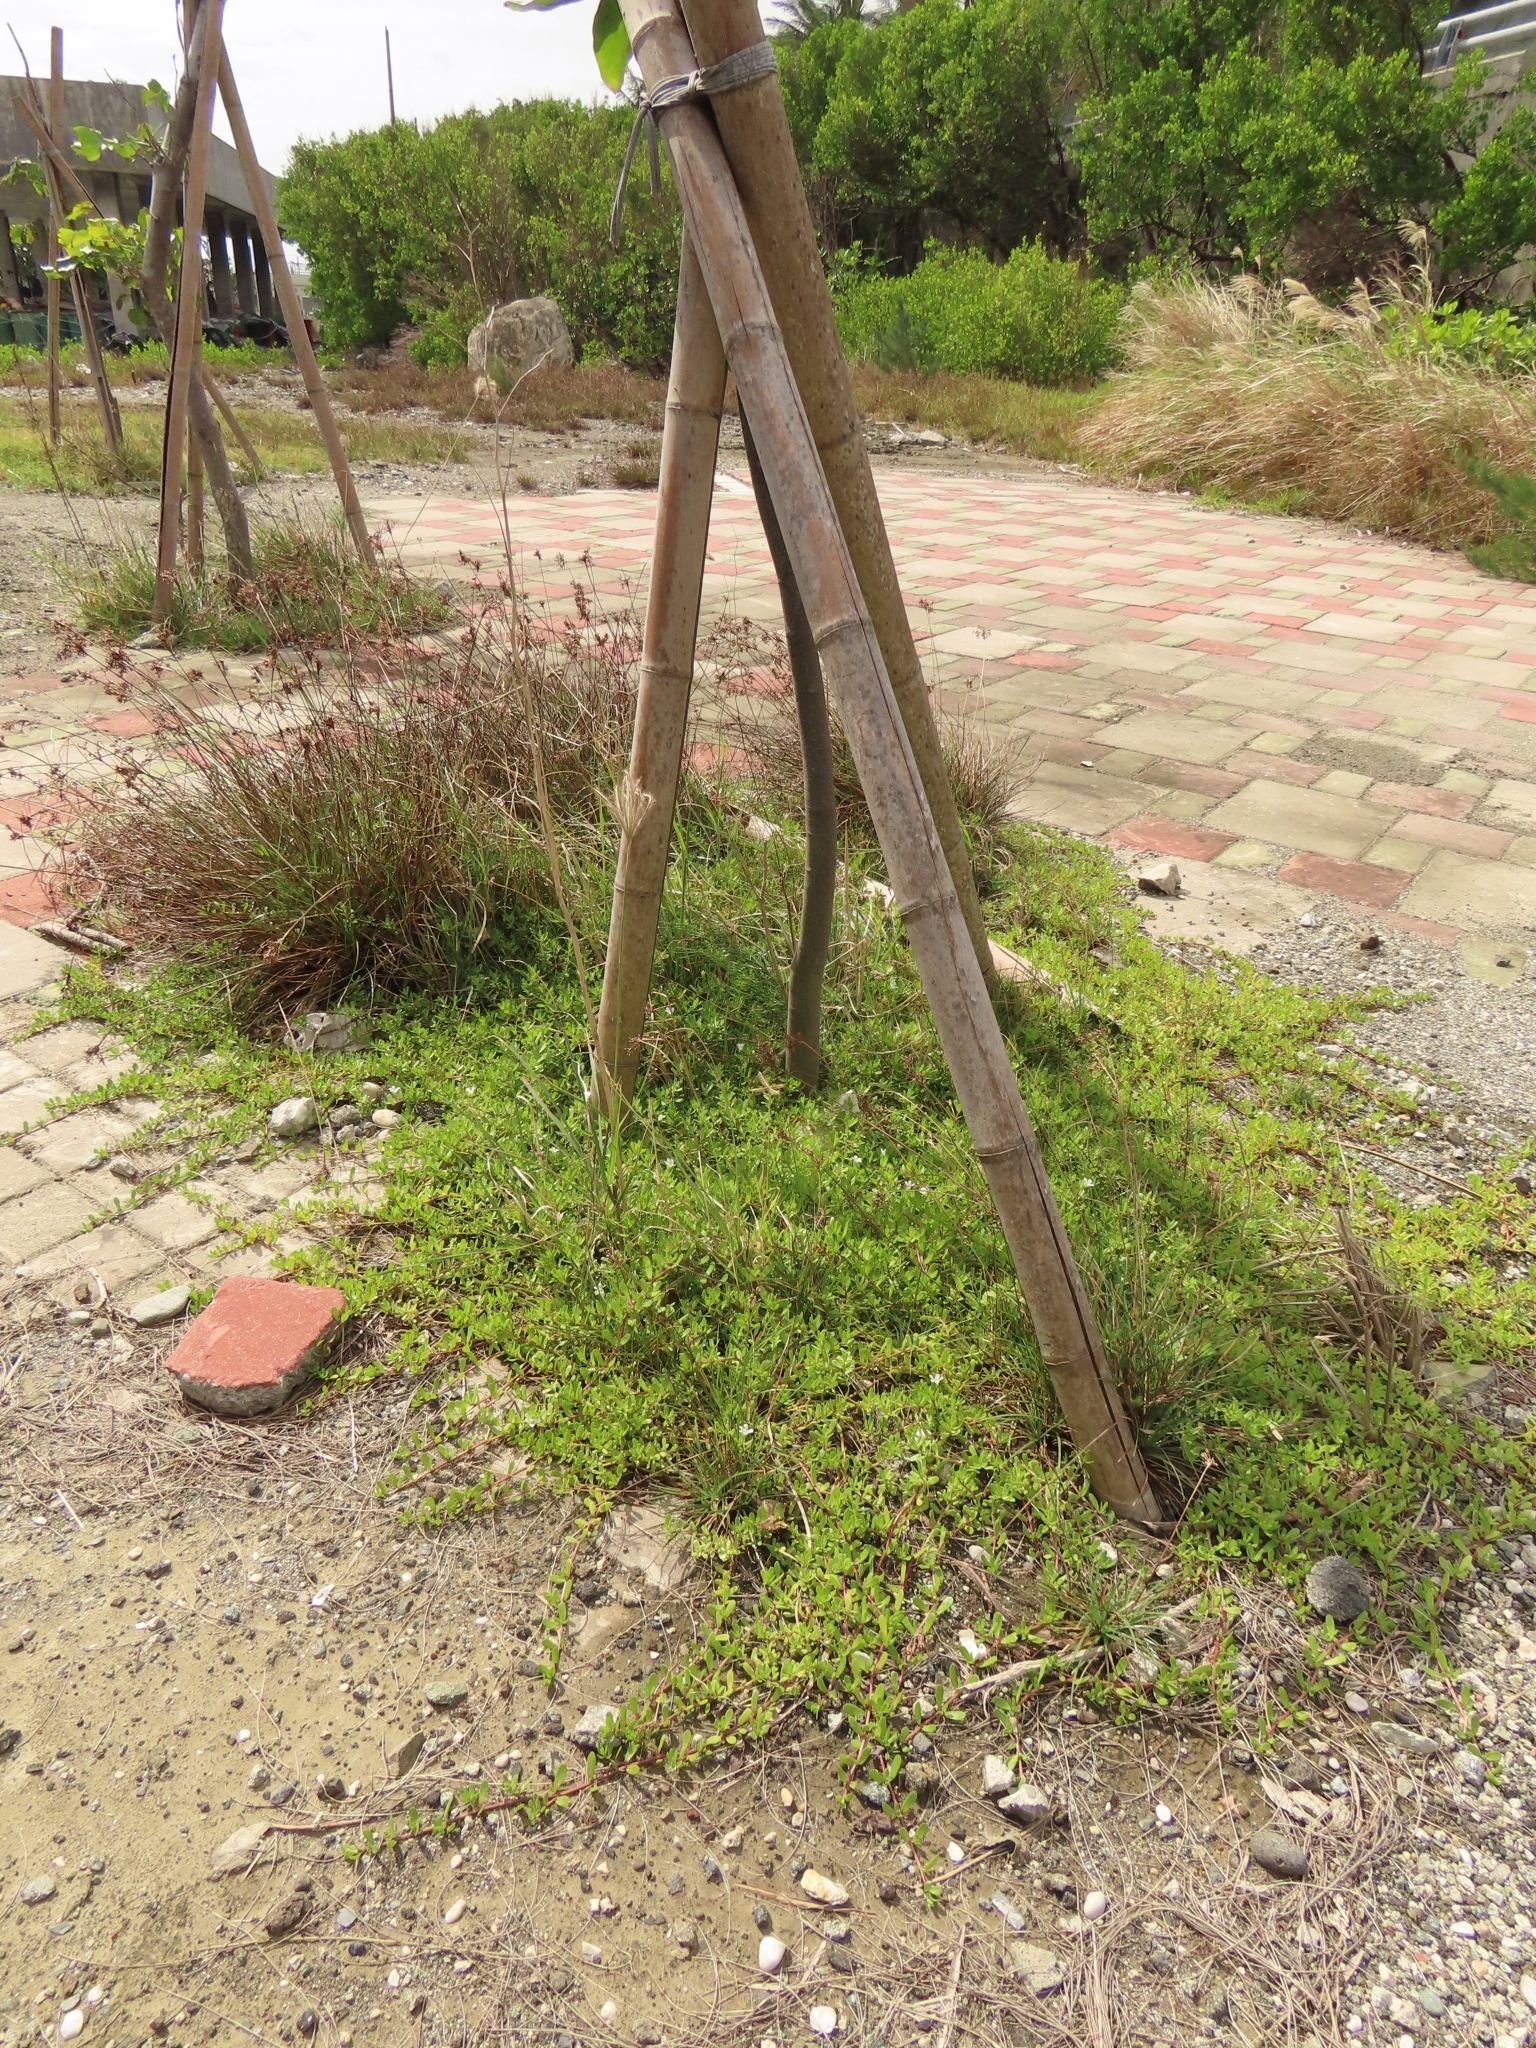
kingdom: Plantae
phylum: Tracheophyta
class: Magnoliopsida
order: Lamiales
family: Plantaginaceae
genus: Bacopa
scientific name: Bacopa monnieri
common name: Indian-pennywort
